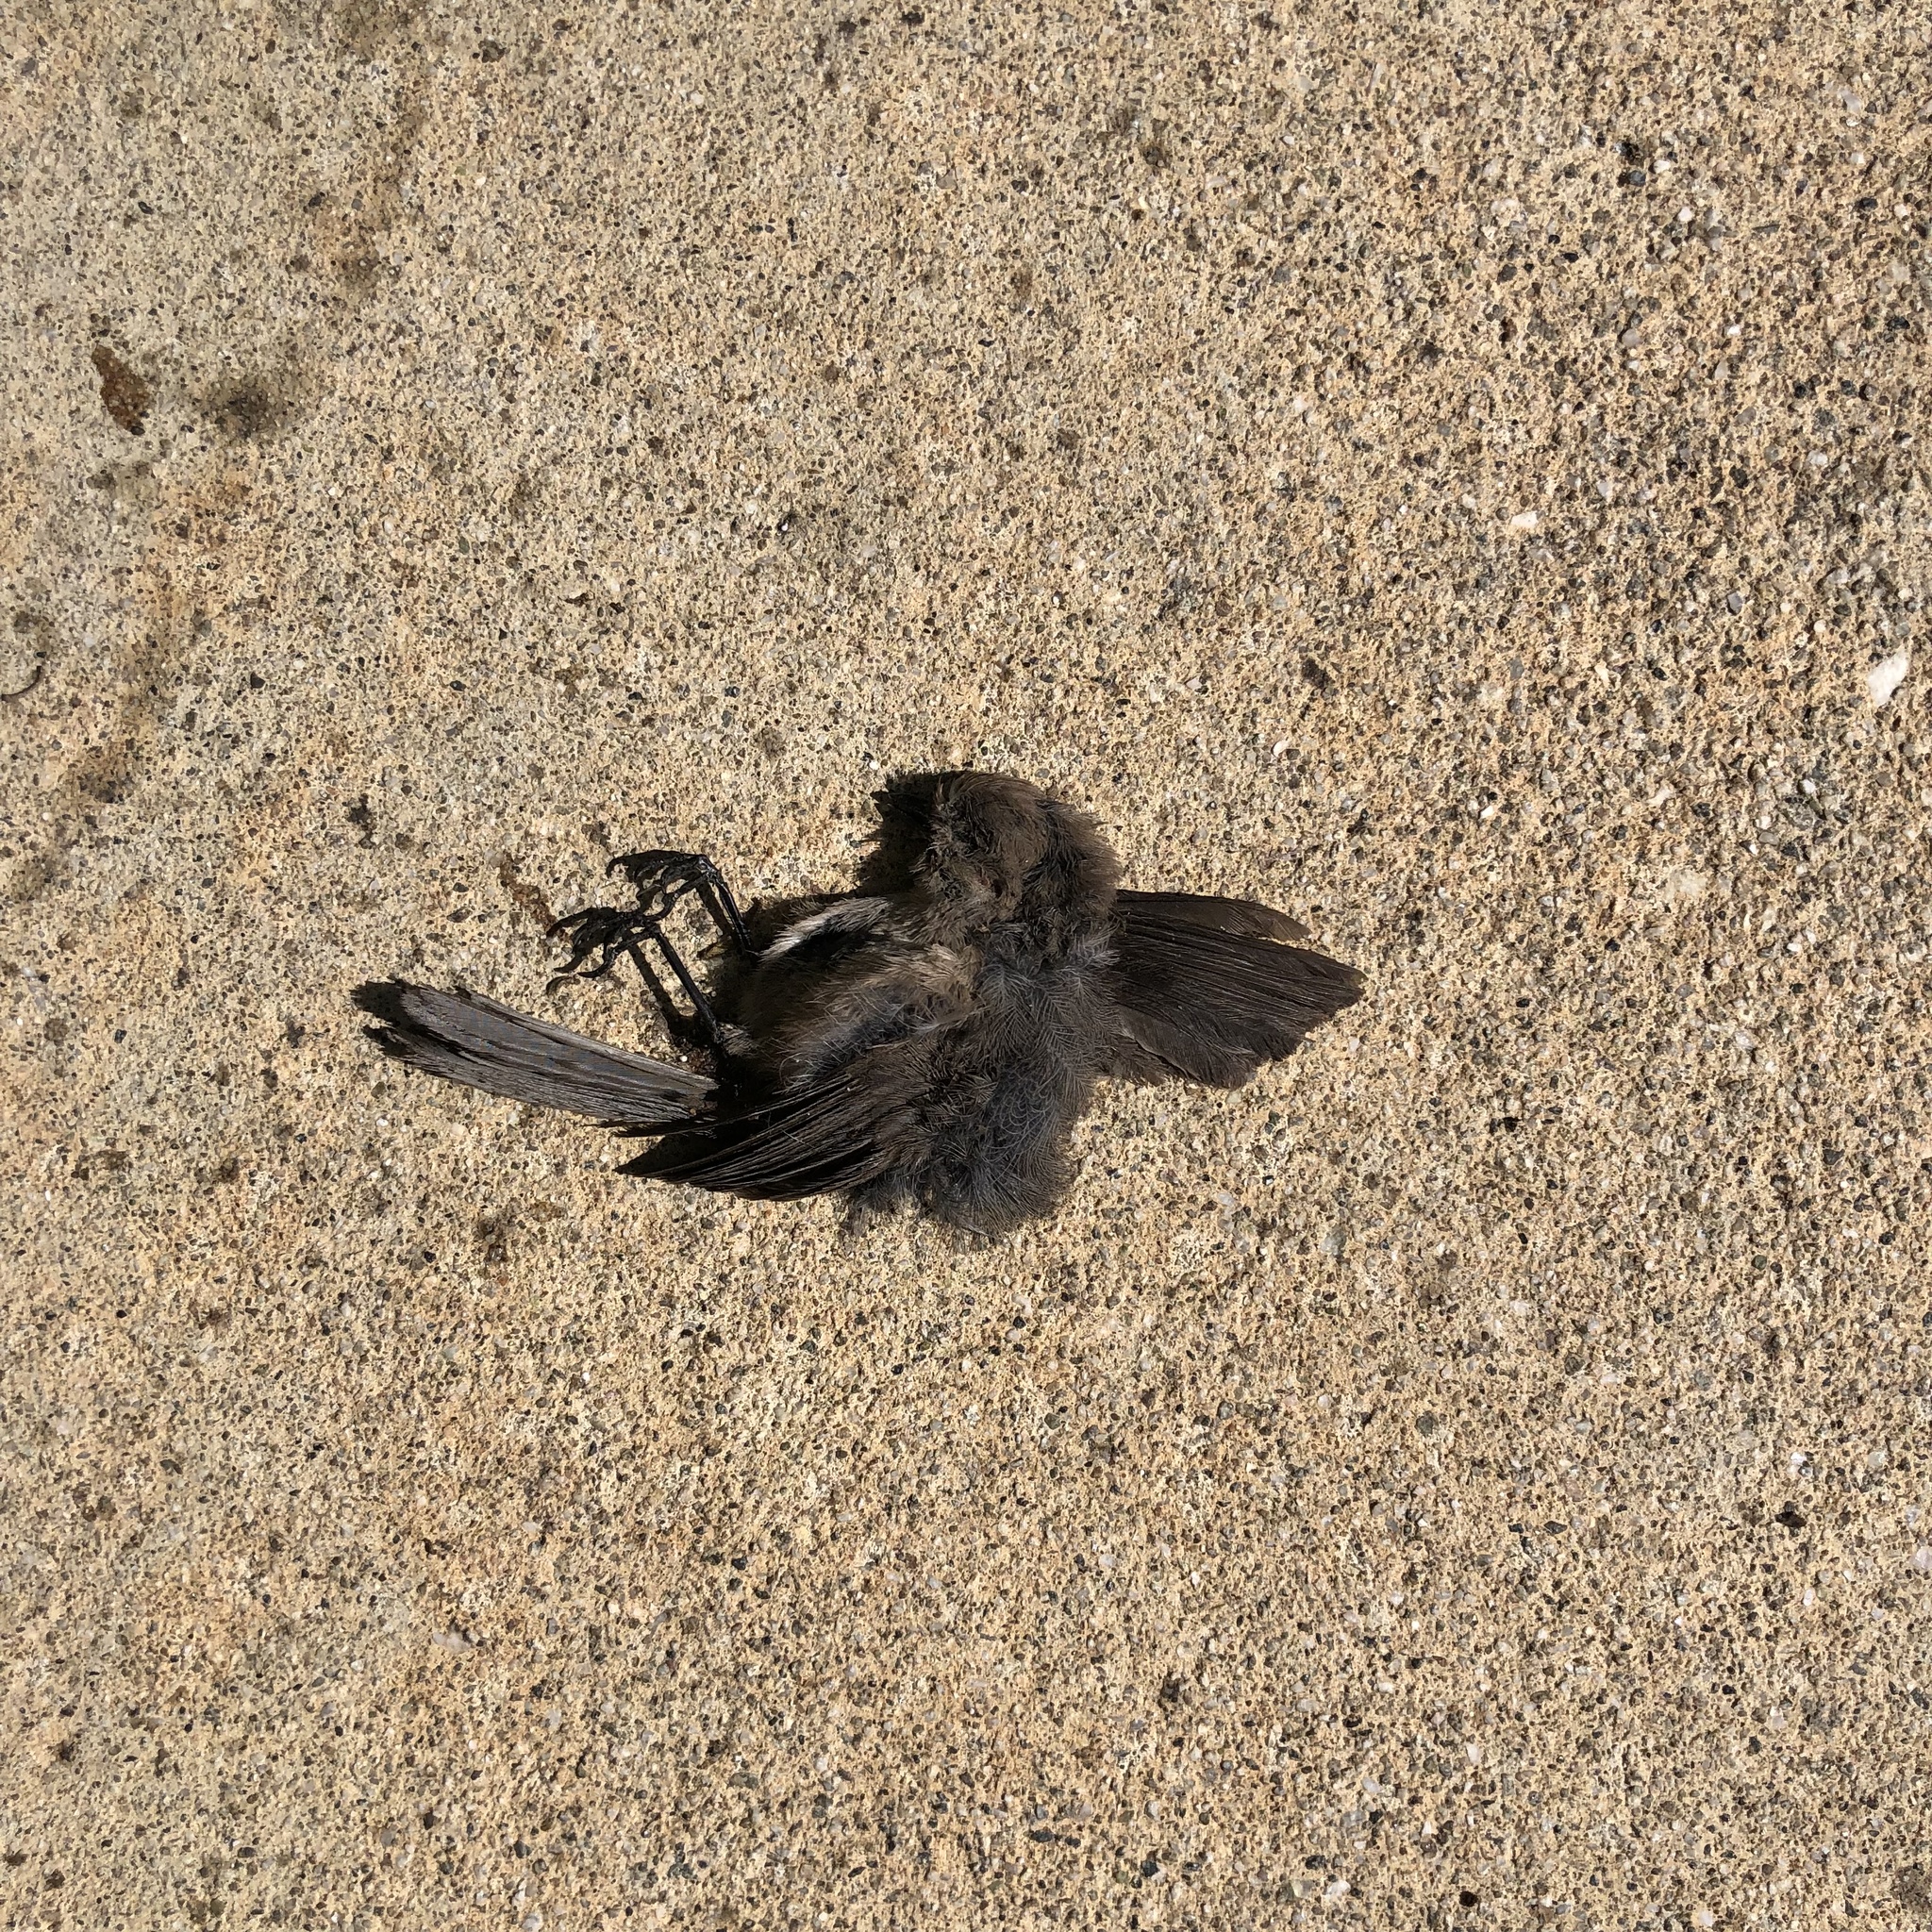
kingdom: Animalia
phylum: Chordata
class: Aves
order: Passeriformes
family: Aegithalidae
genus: Psaltriparus
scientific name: Psaltriparus minimus
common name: American bushtit
